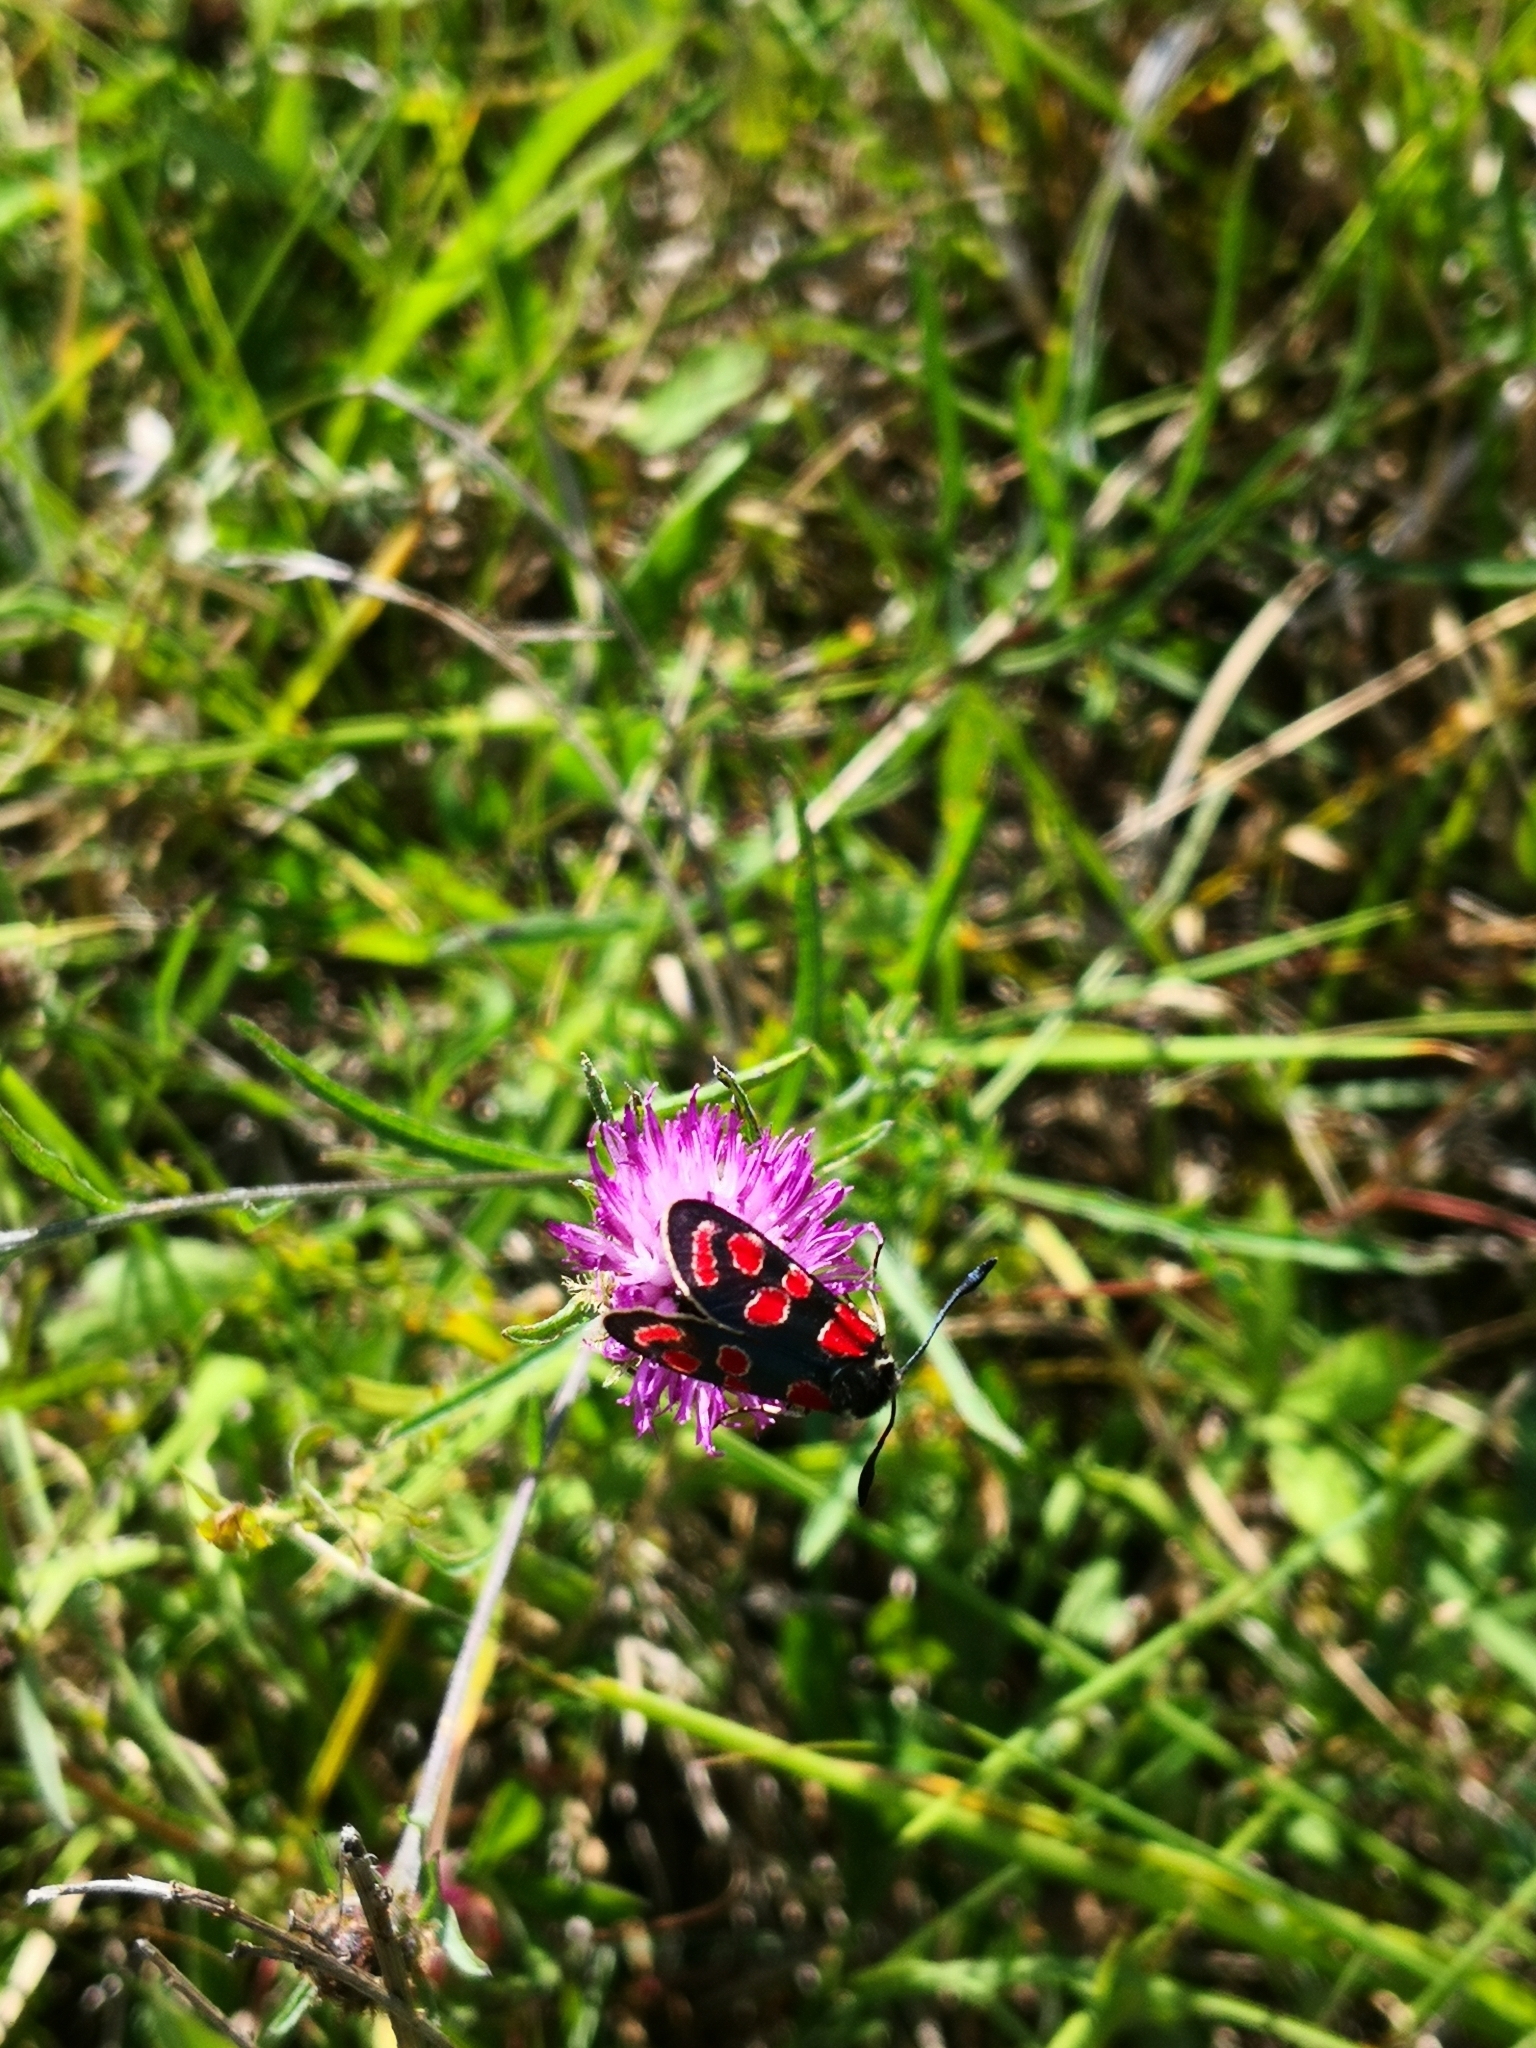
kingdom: Animalia
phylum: Arthropoda
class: Insecta
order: Lepidoptera
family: Zygaenidae
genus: Zygaena
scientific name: Zygaena carniolica
